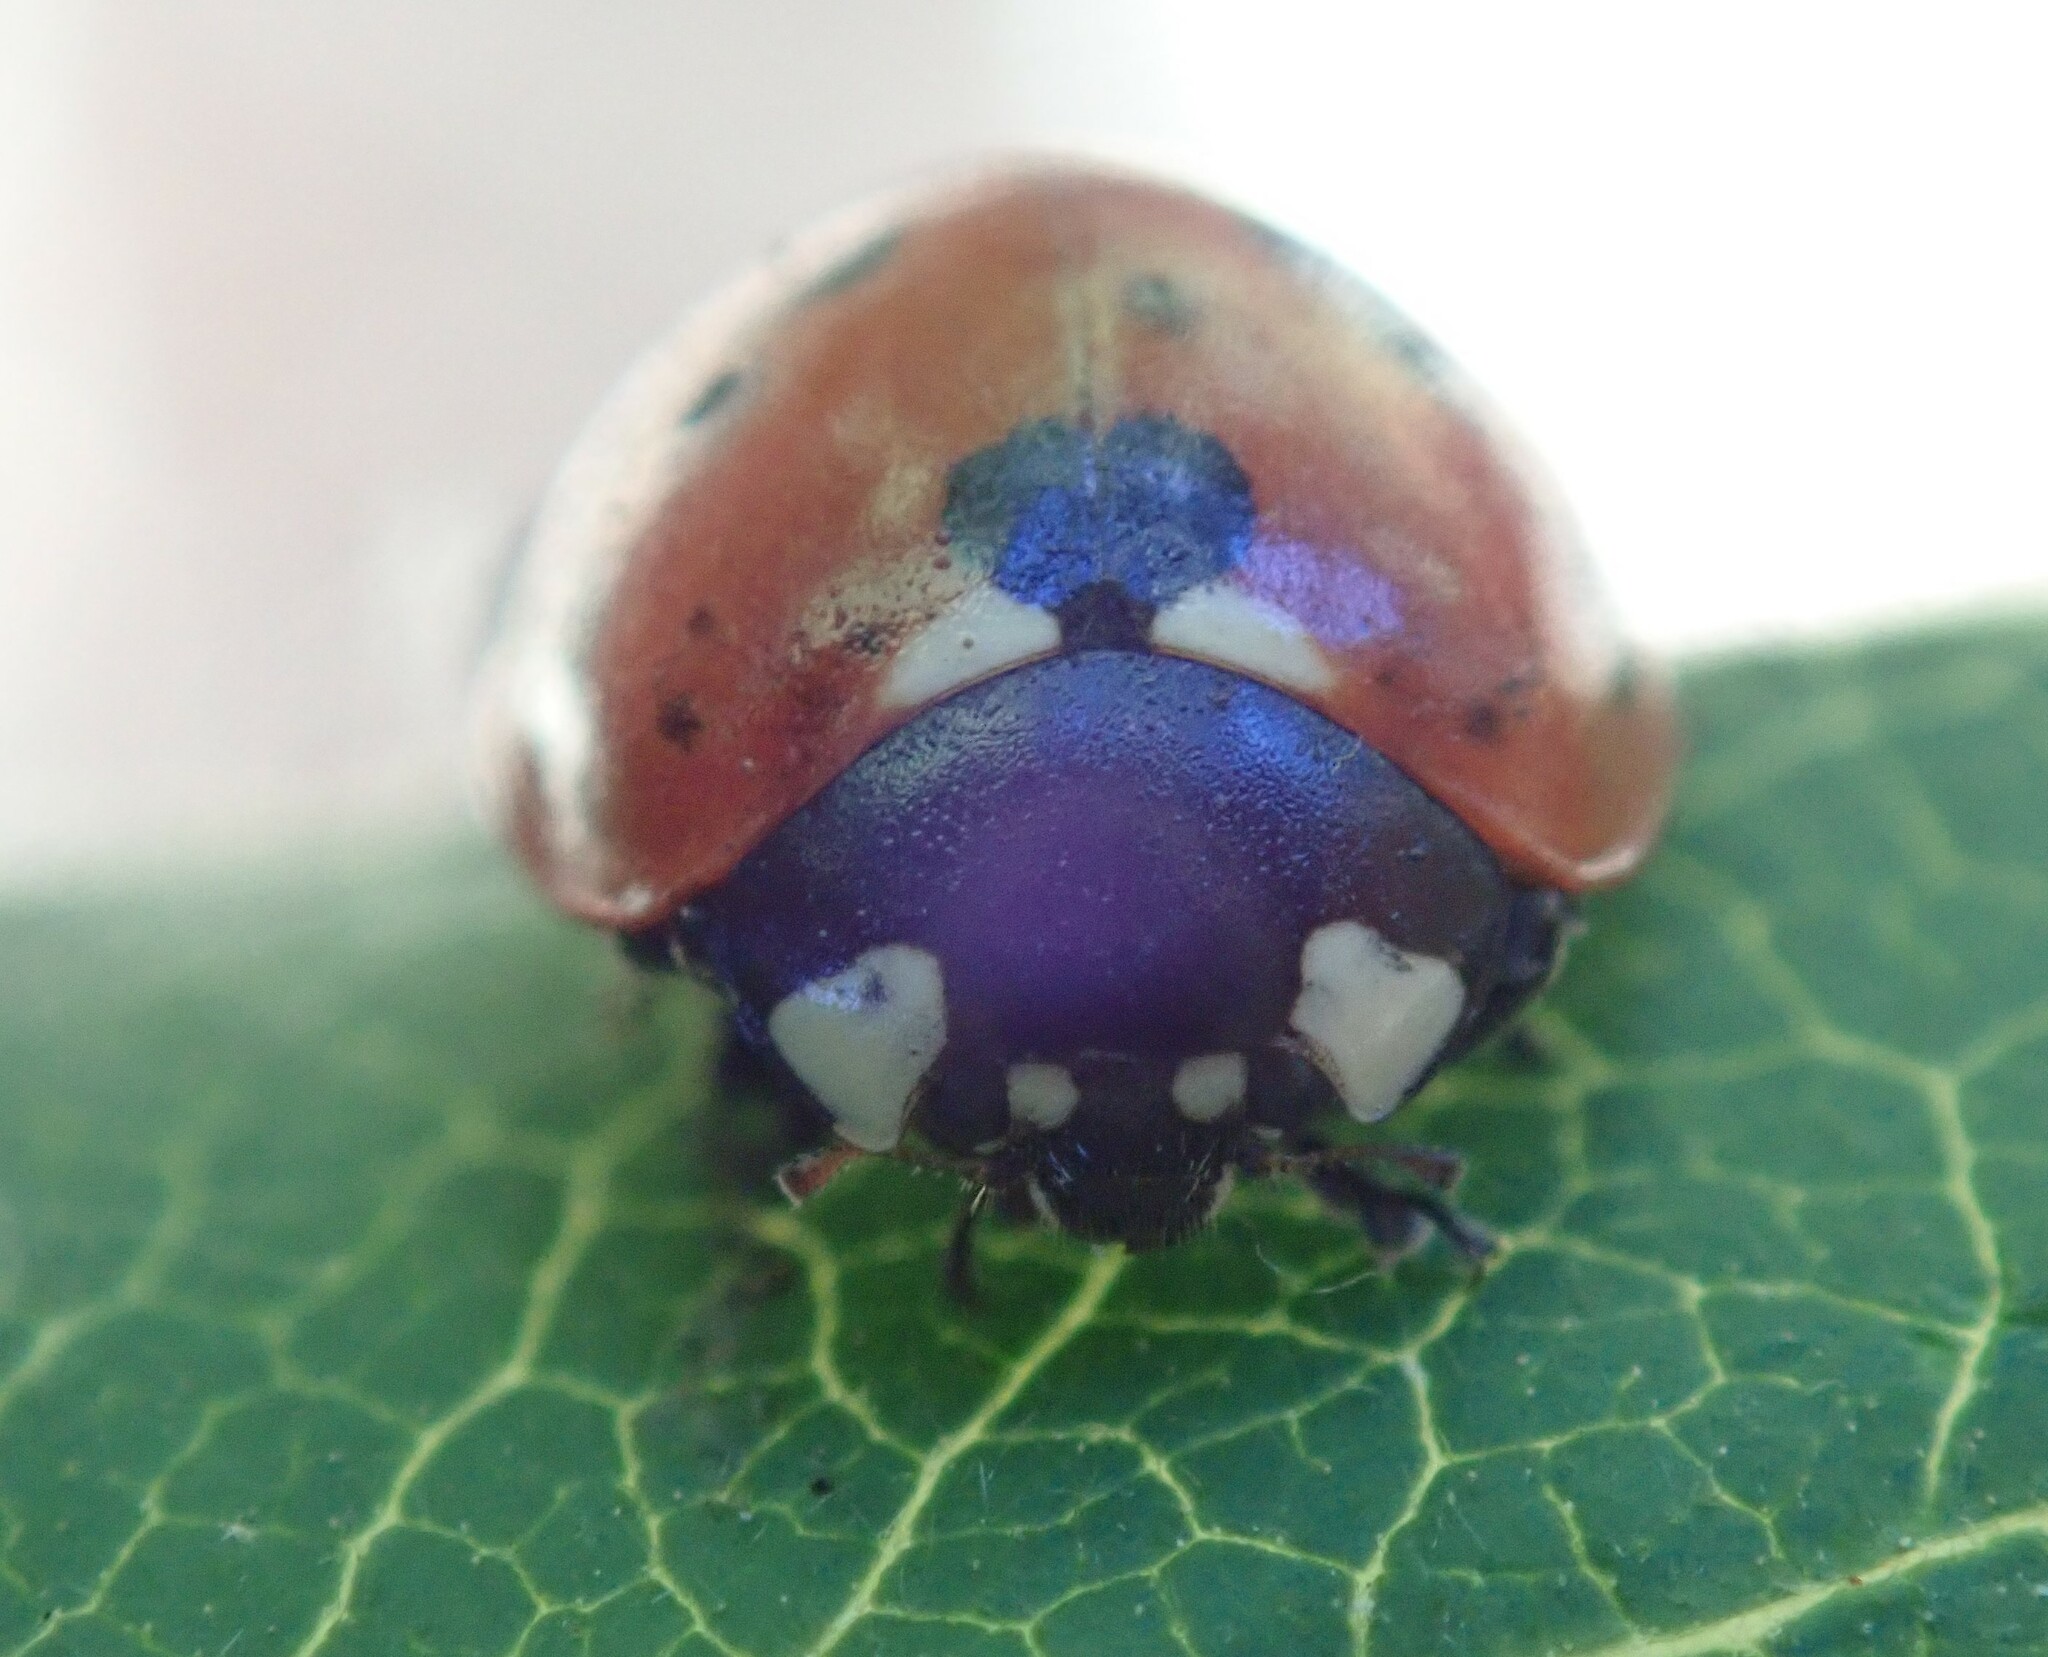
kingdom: Animalia
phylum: Arthropoda
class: Insecta
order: Coleoptera
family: Coccinellidae
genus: Coccinella
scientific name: Coccinella septempunctata
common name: Sevenspotted lady beetle
